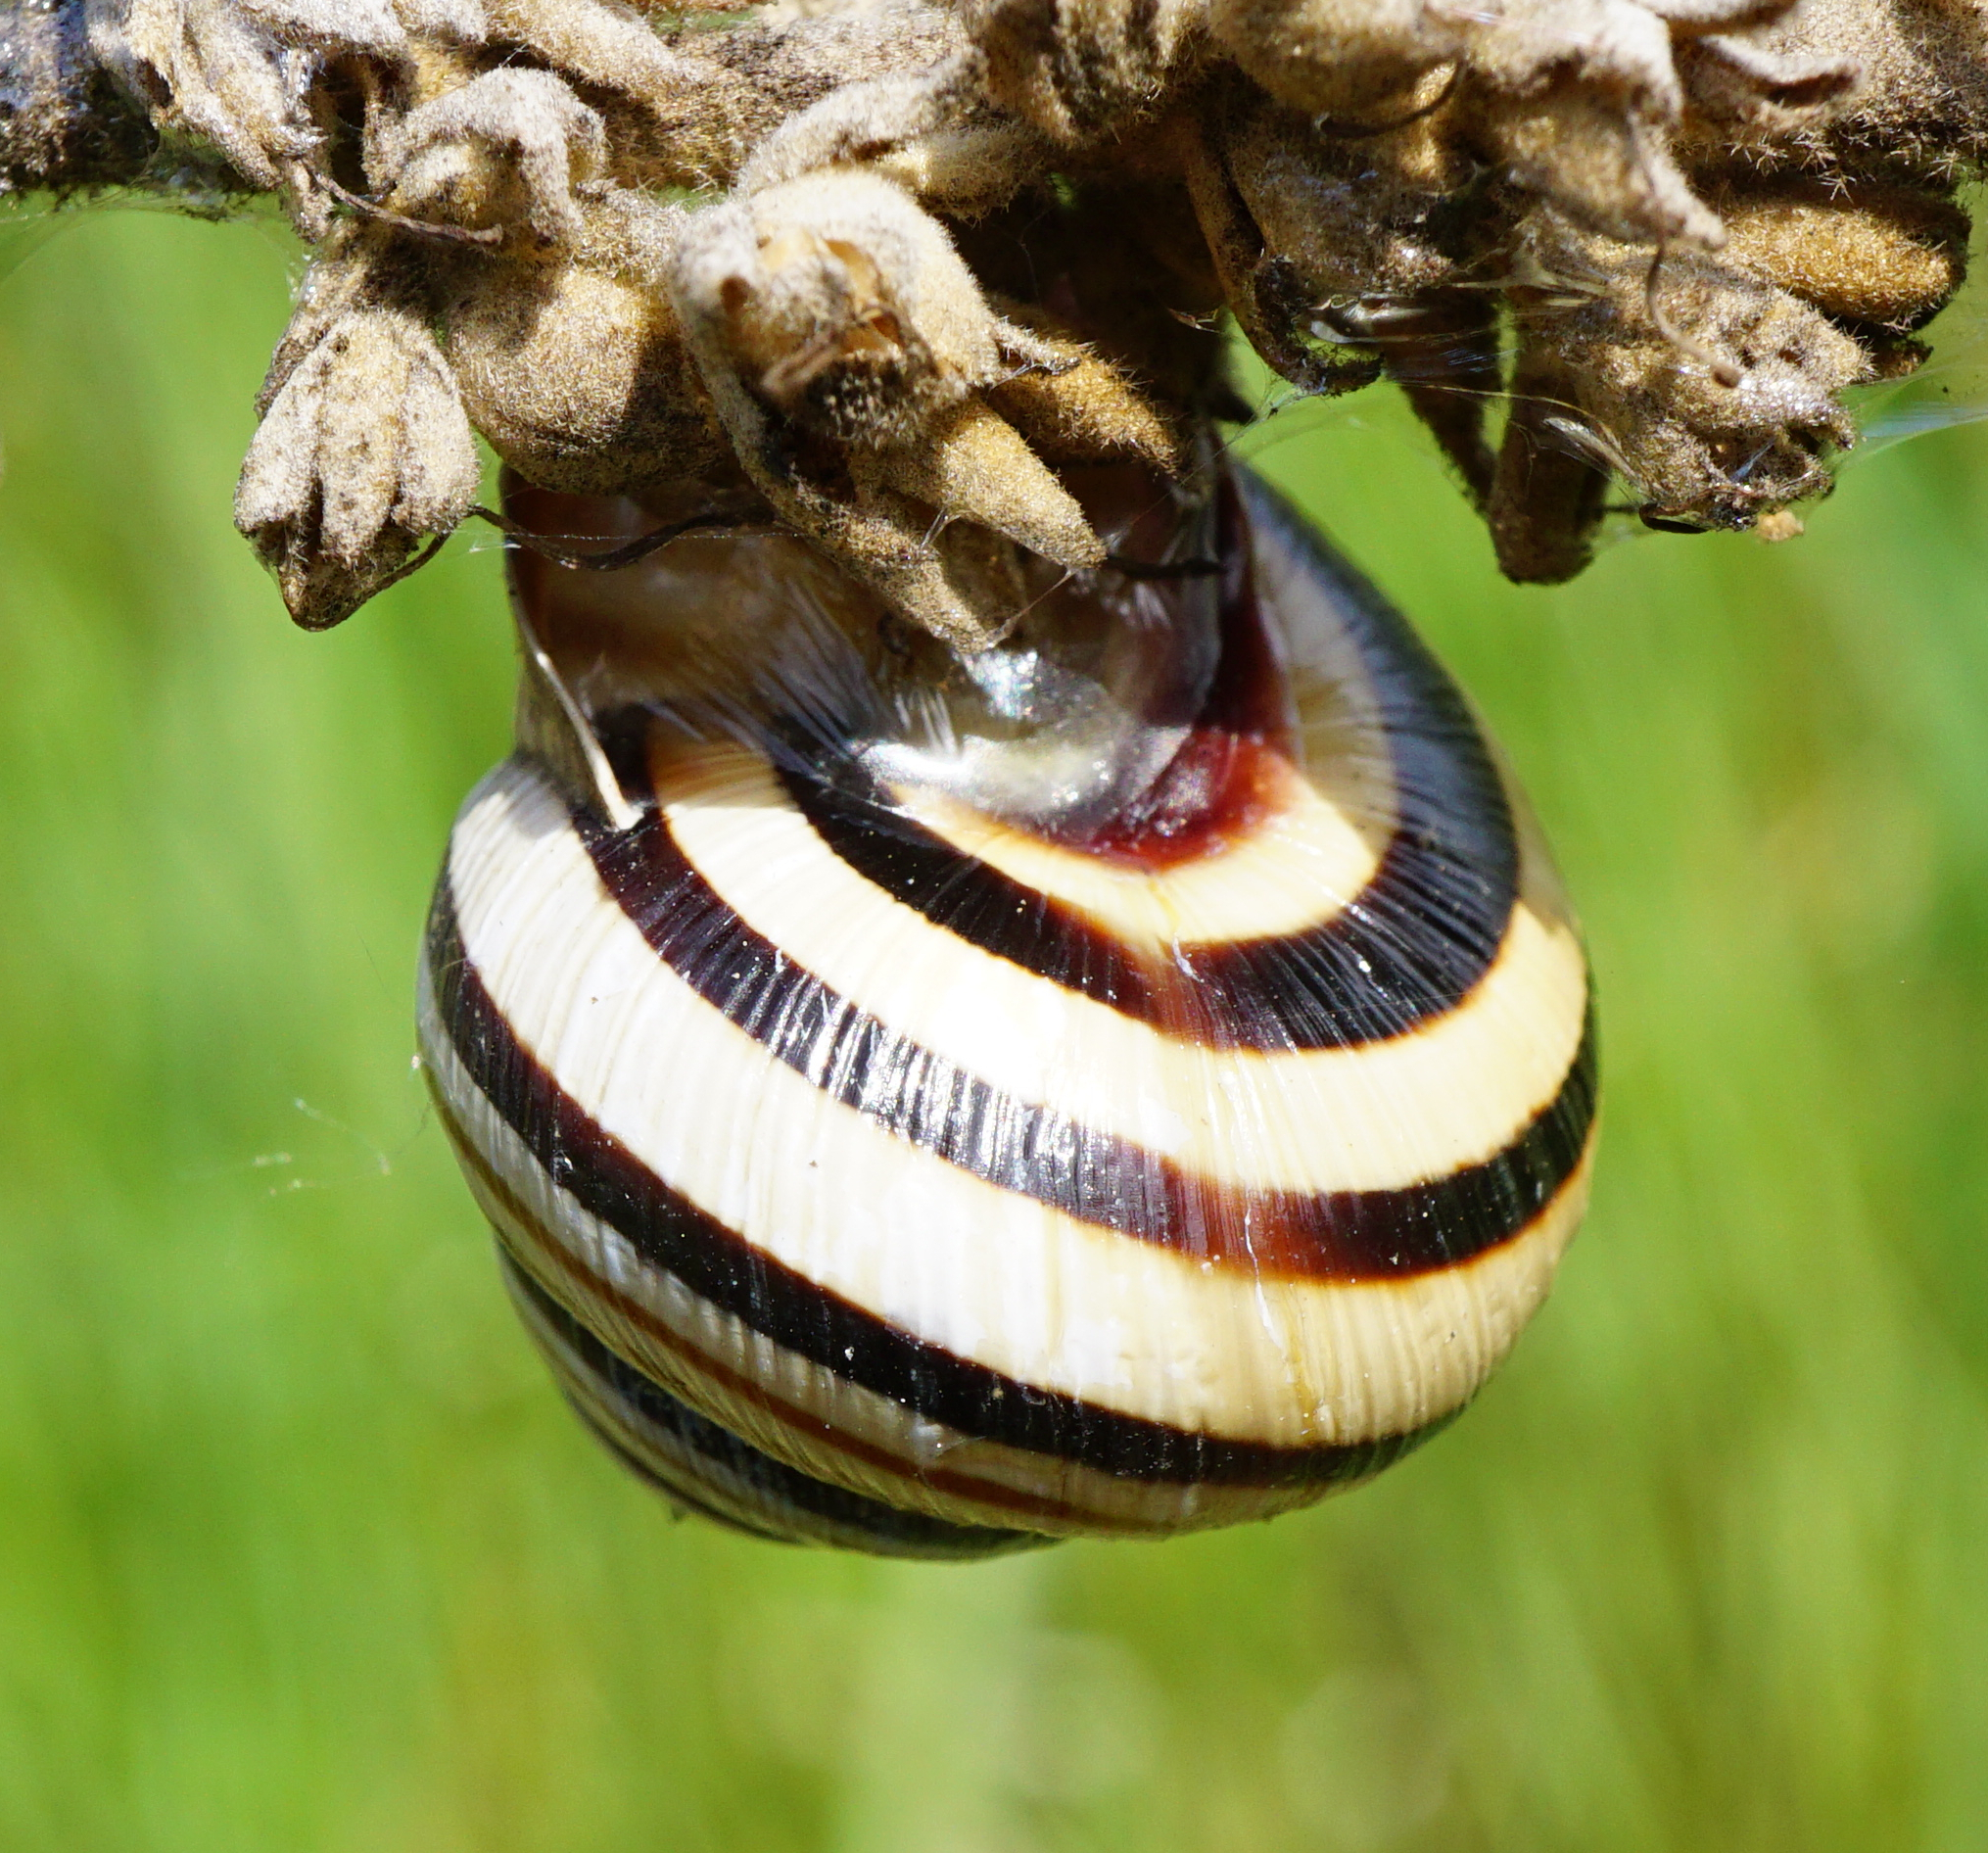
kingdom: Animalia
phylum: Mollusca
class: Gastropoda
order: Stylommatophora
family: Helicidae
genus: Caucasotachea
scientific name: Caucasotachea vindobonensis
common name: European helicid land snail
